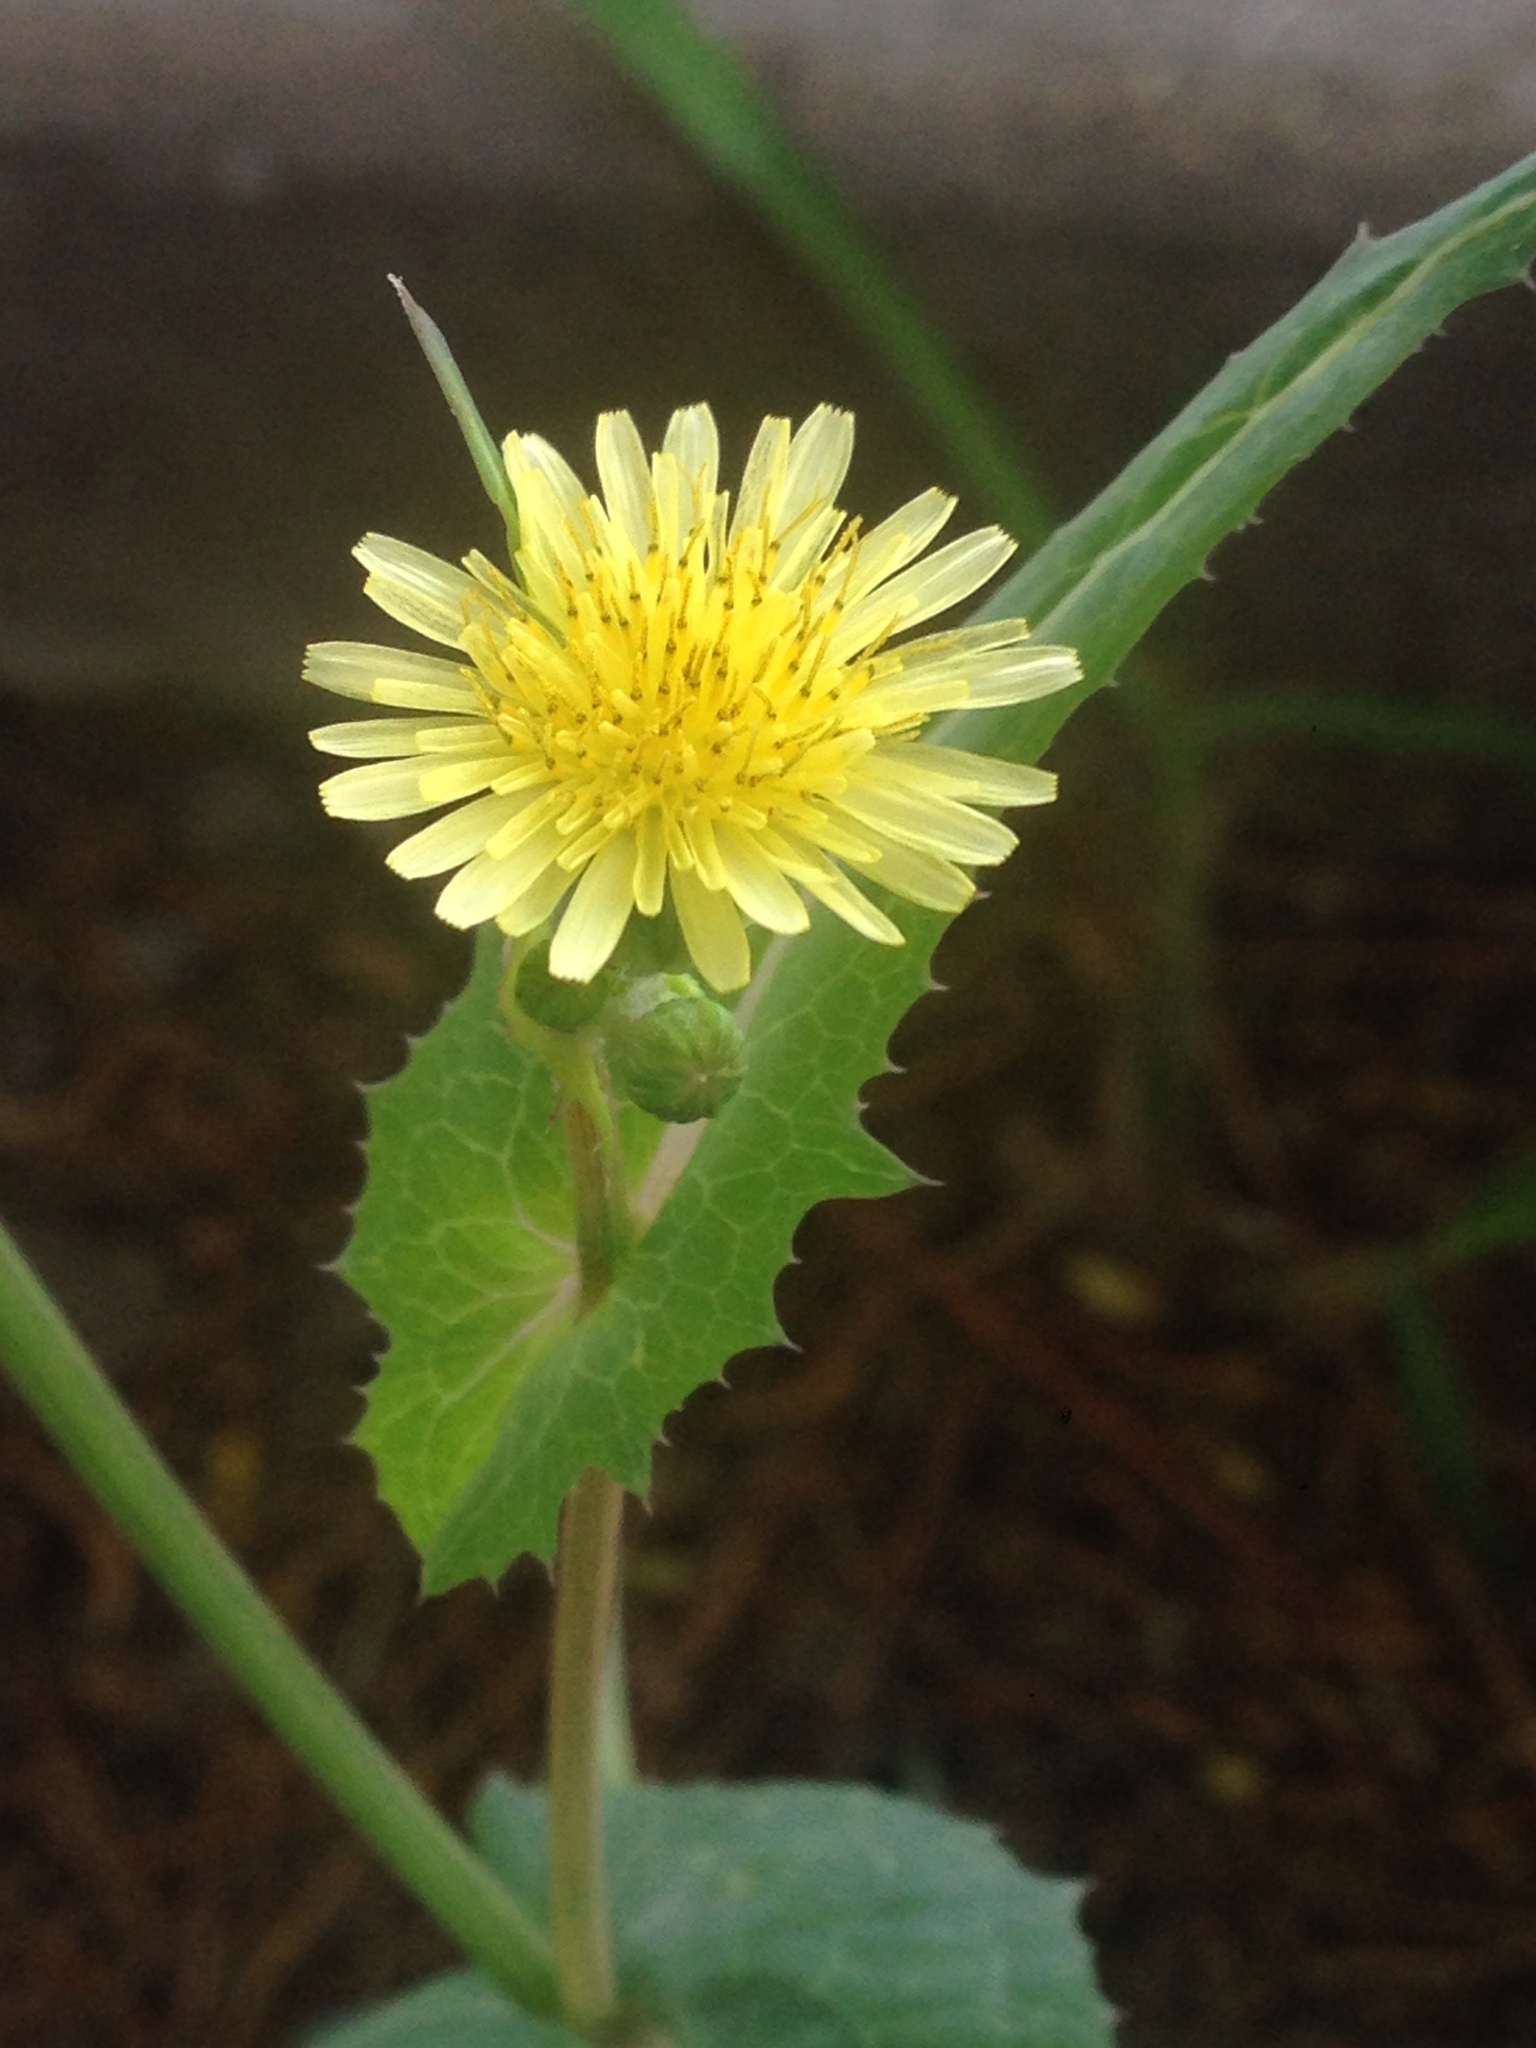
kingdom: Plantae
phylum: Tracheophyta
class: Magnoliopsida
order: Asterales
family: Asteraceae
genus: Sonchus
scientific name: Sonchus oleraceus
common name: Common sowthistle
